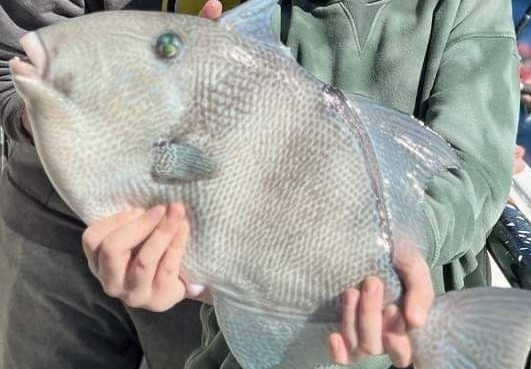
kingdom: Animalia
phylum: Chordata
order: Tetraodontiformes
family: Balistidae
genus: Balistes
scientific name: Balistes capriscus
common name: Grey triggerfish
